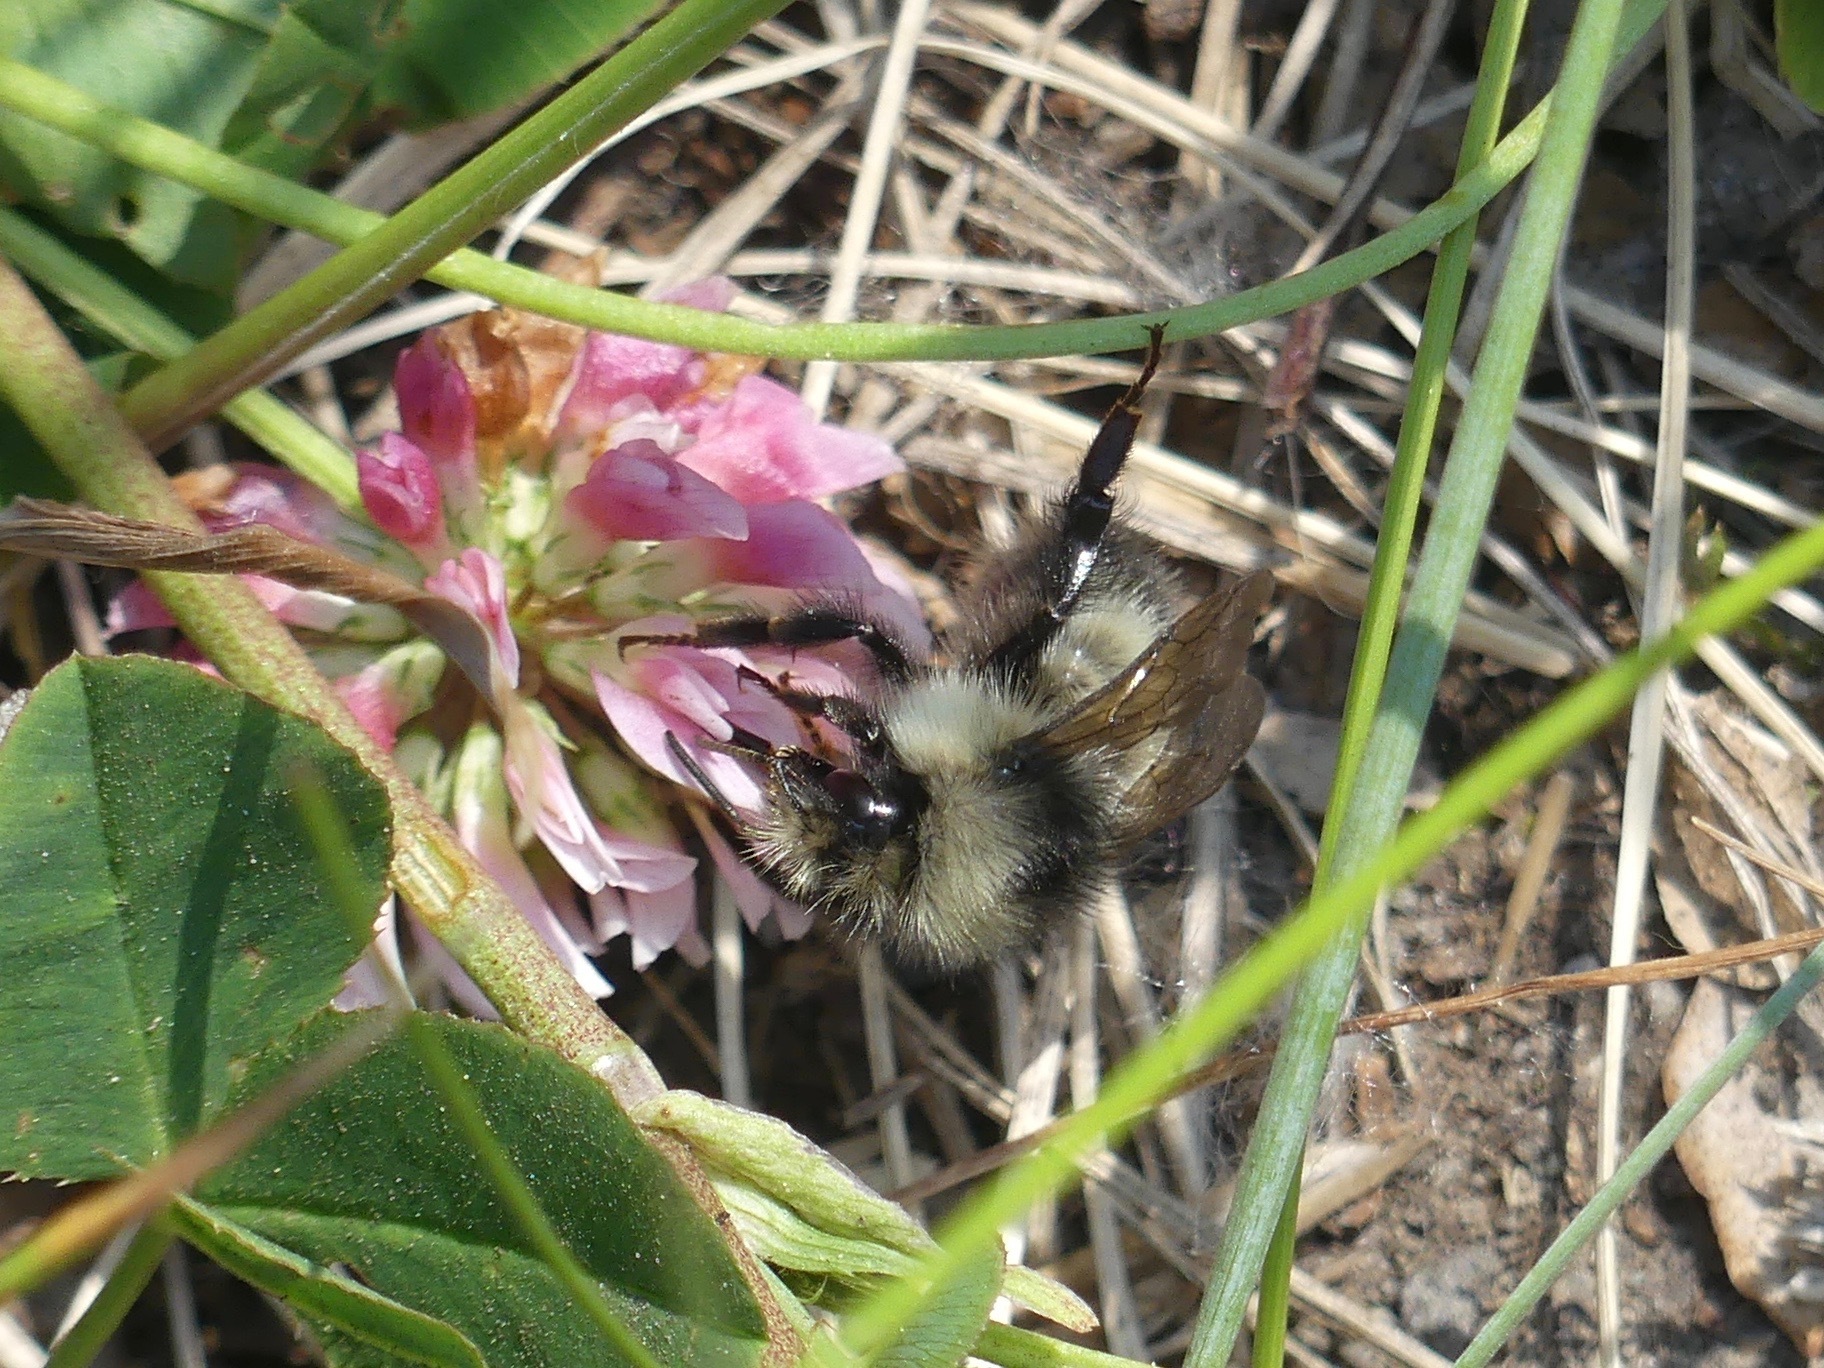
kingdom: Animalia
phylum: Arthropoda
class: Insecta
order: Hymenoptera
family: Apidae
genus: Bombus
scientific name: Bombus flavifrons
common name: Yellow head bumble bee
